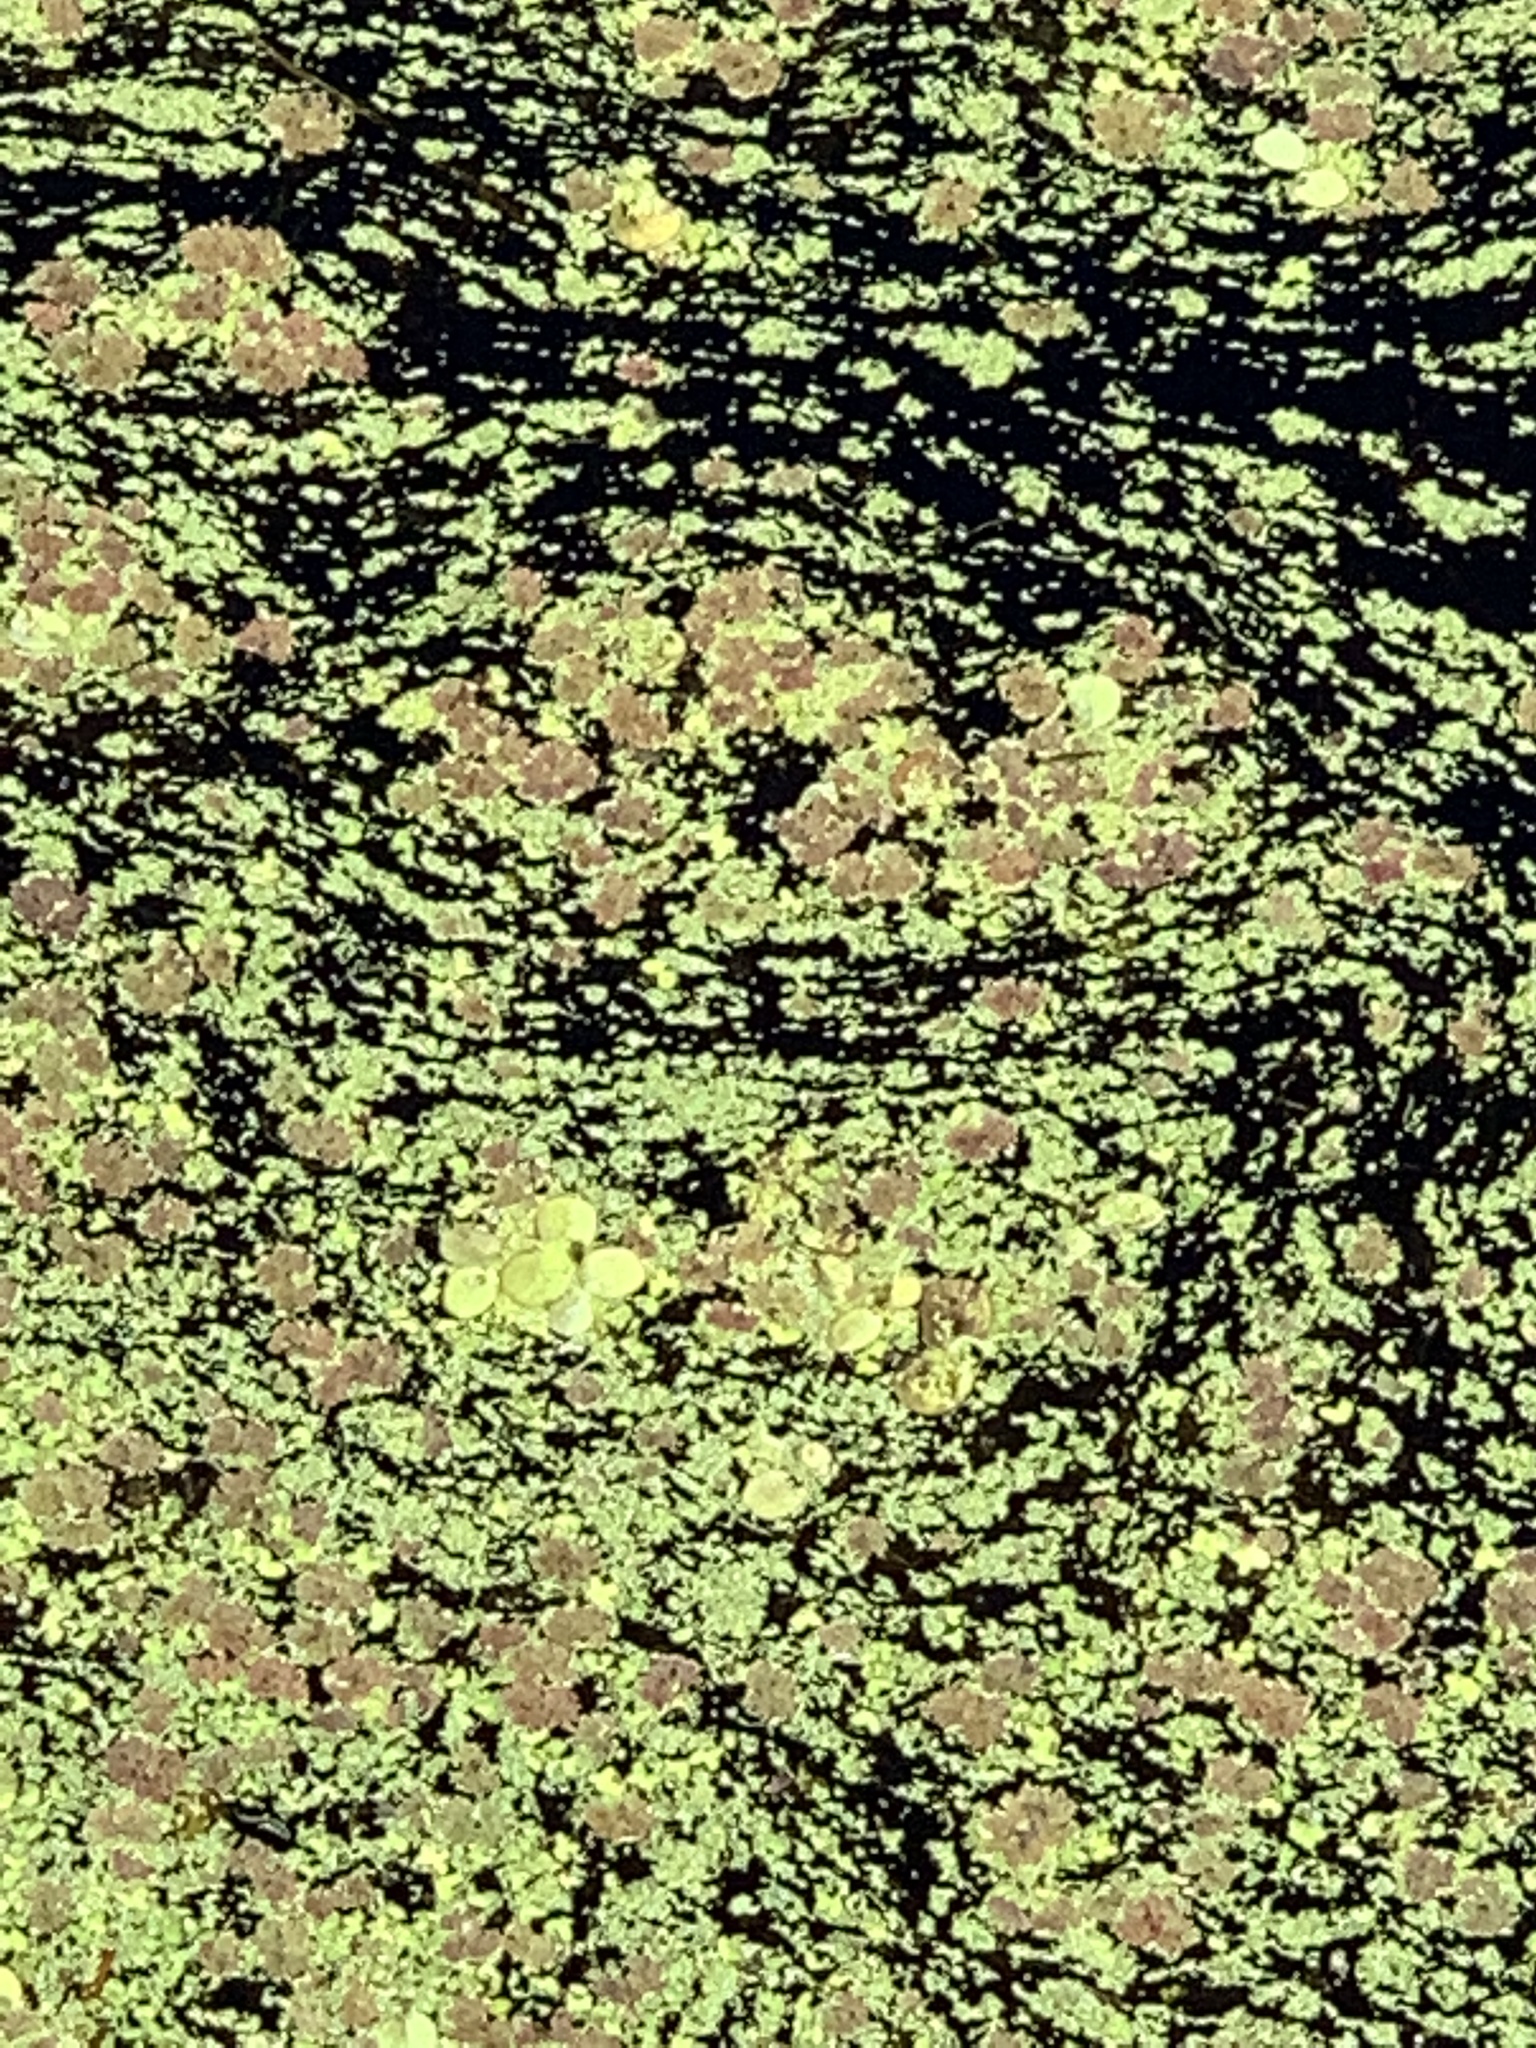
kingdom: Plantae
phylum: Tracheophyta
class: Polypodiopsida
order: Salviniales
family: Salviniaceae
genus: Salvinia
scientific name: Salvinia minima
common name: Water spangles
